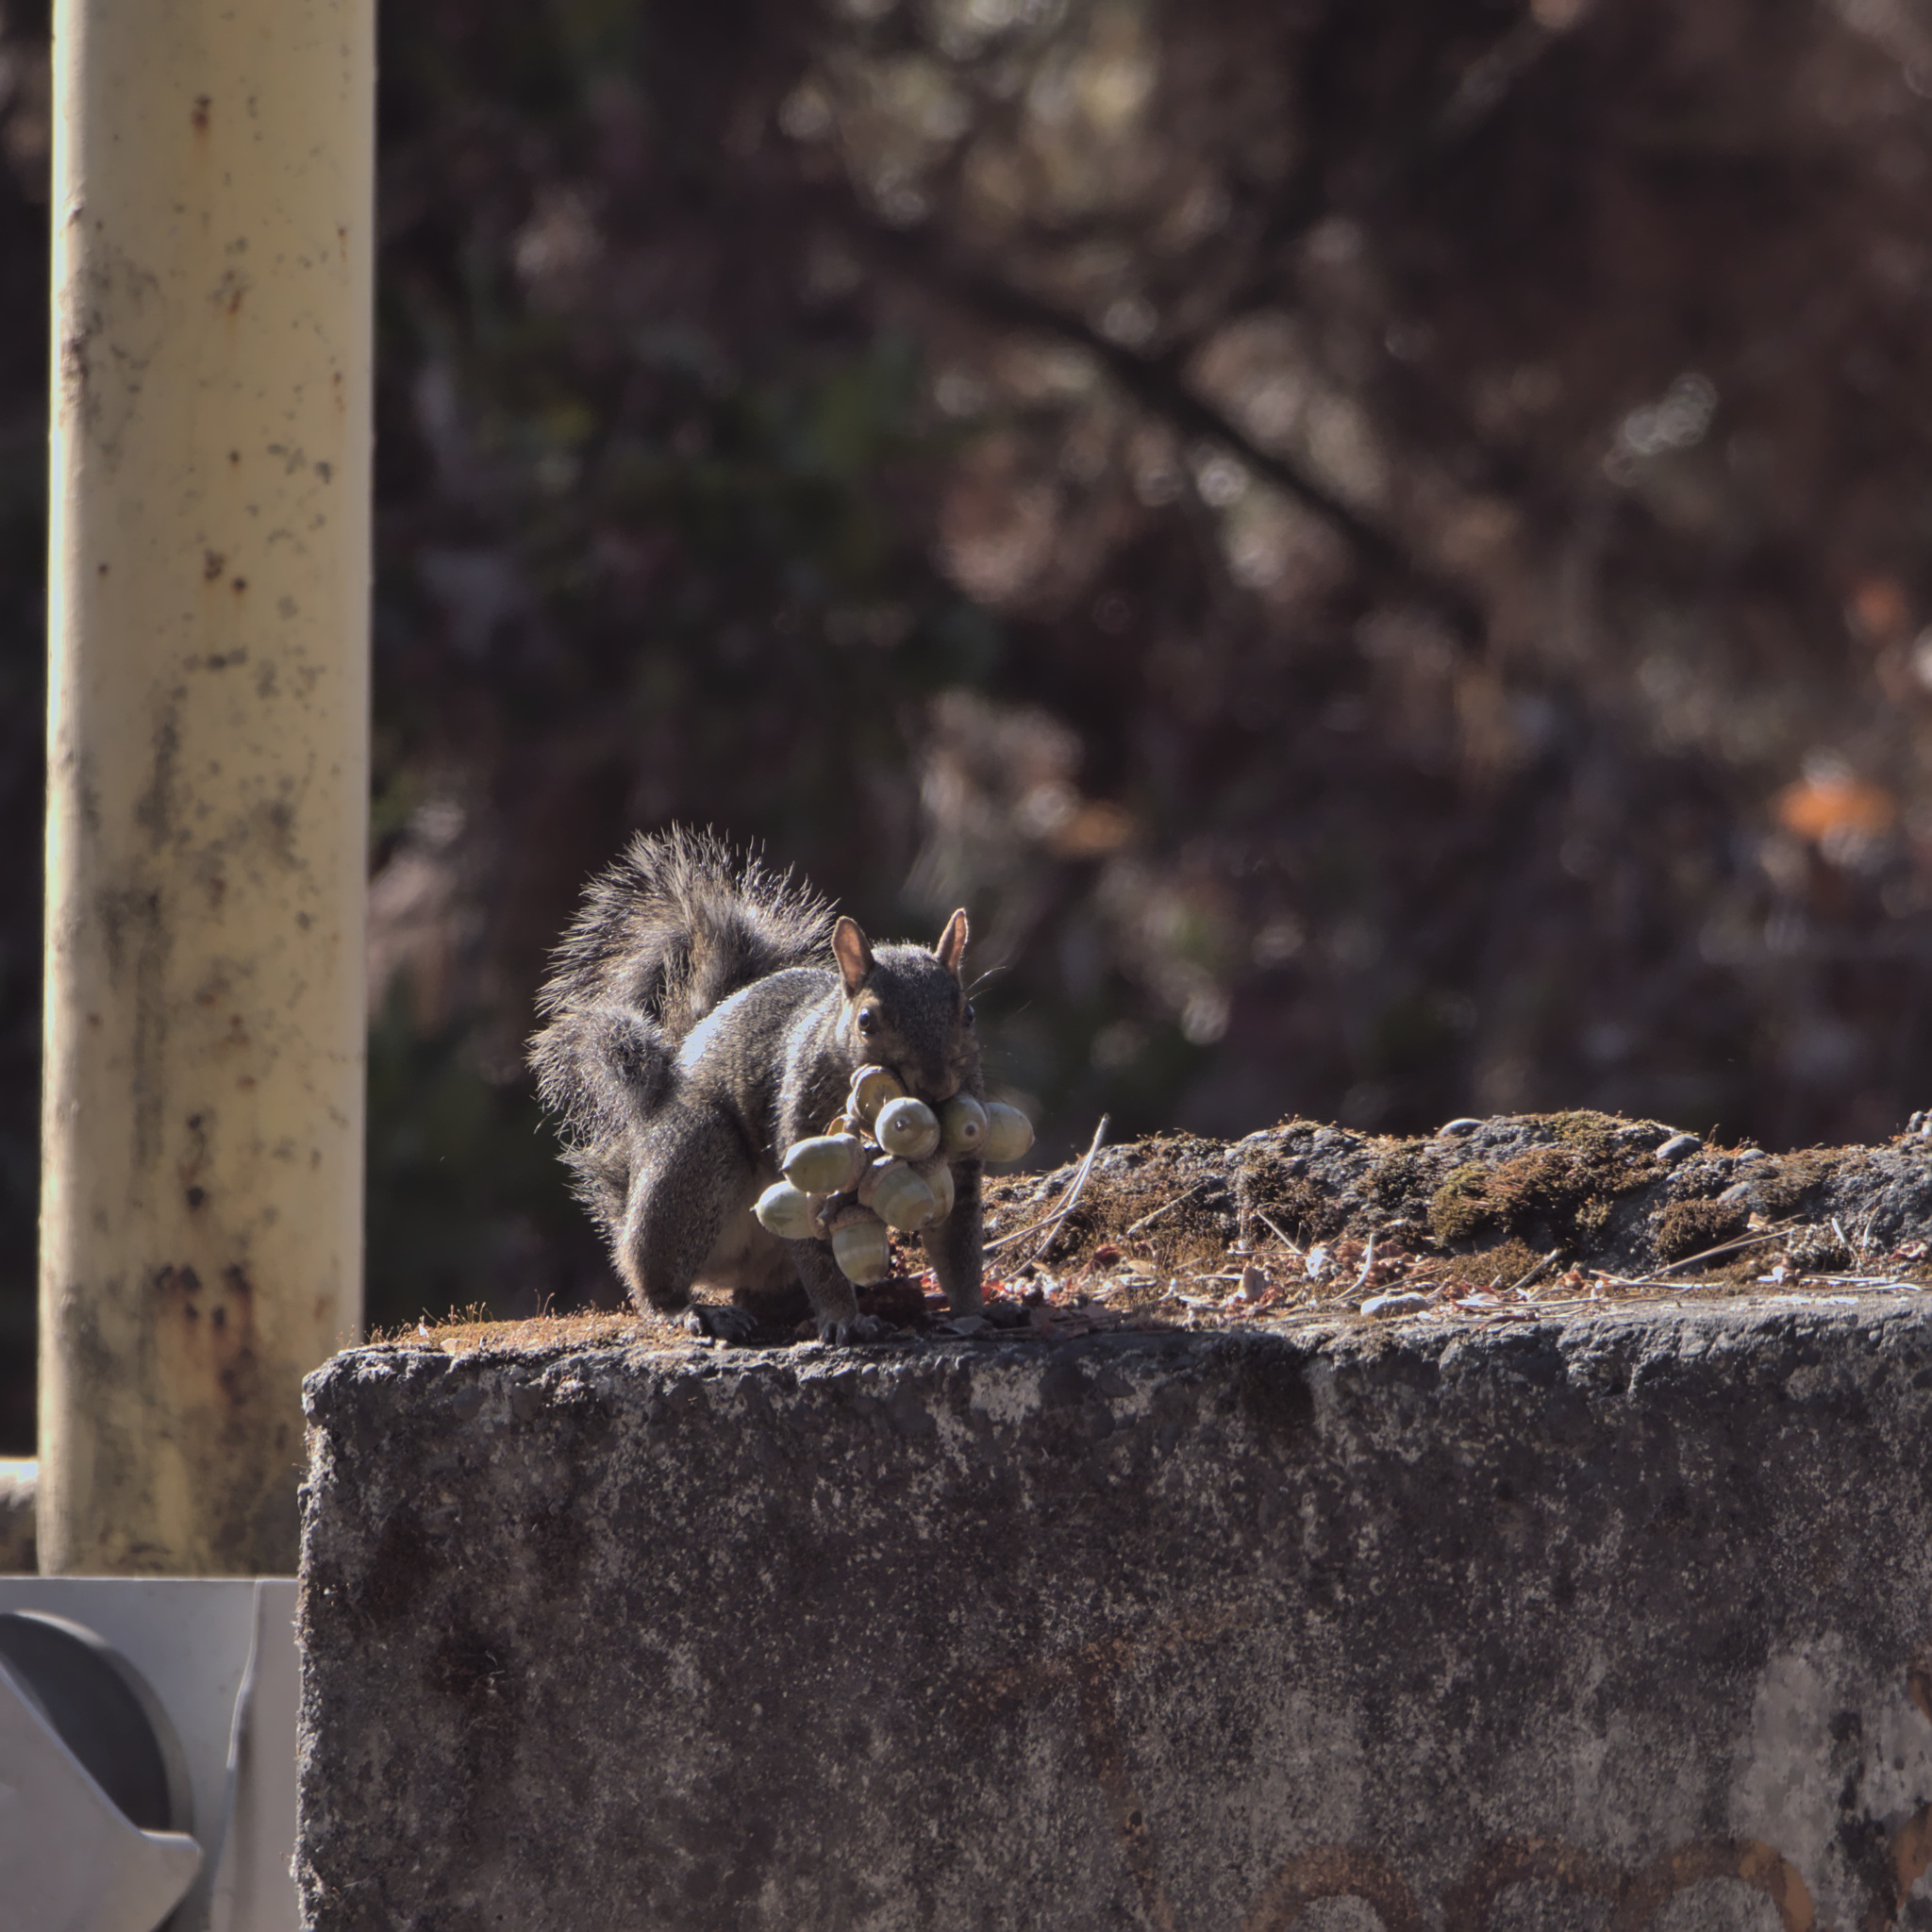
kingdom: Animalia
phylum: Chordata
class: Mammalia
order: Rodentia
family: Sciuridae
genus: Sciurus
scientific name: Sciurus carolinensis
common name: Eastern gray squirrel
